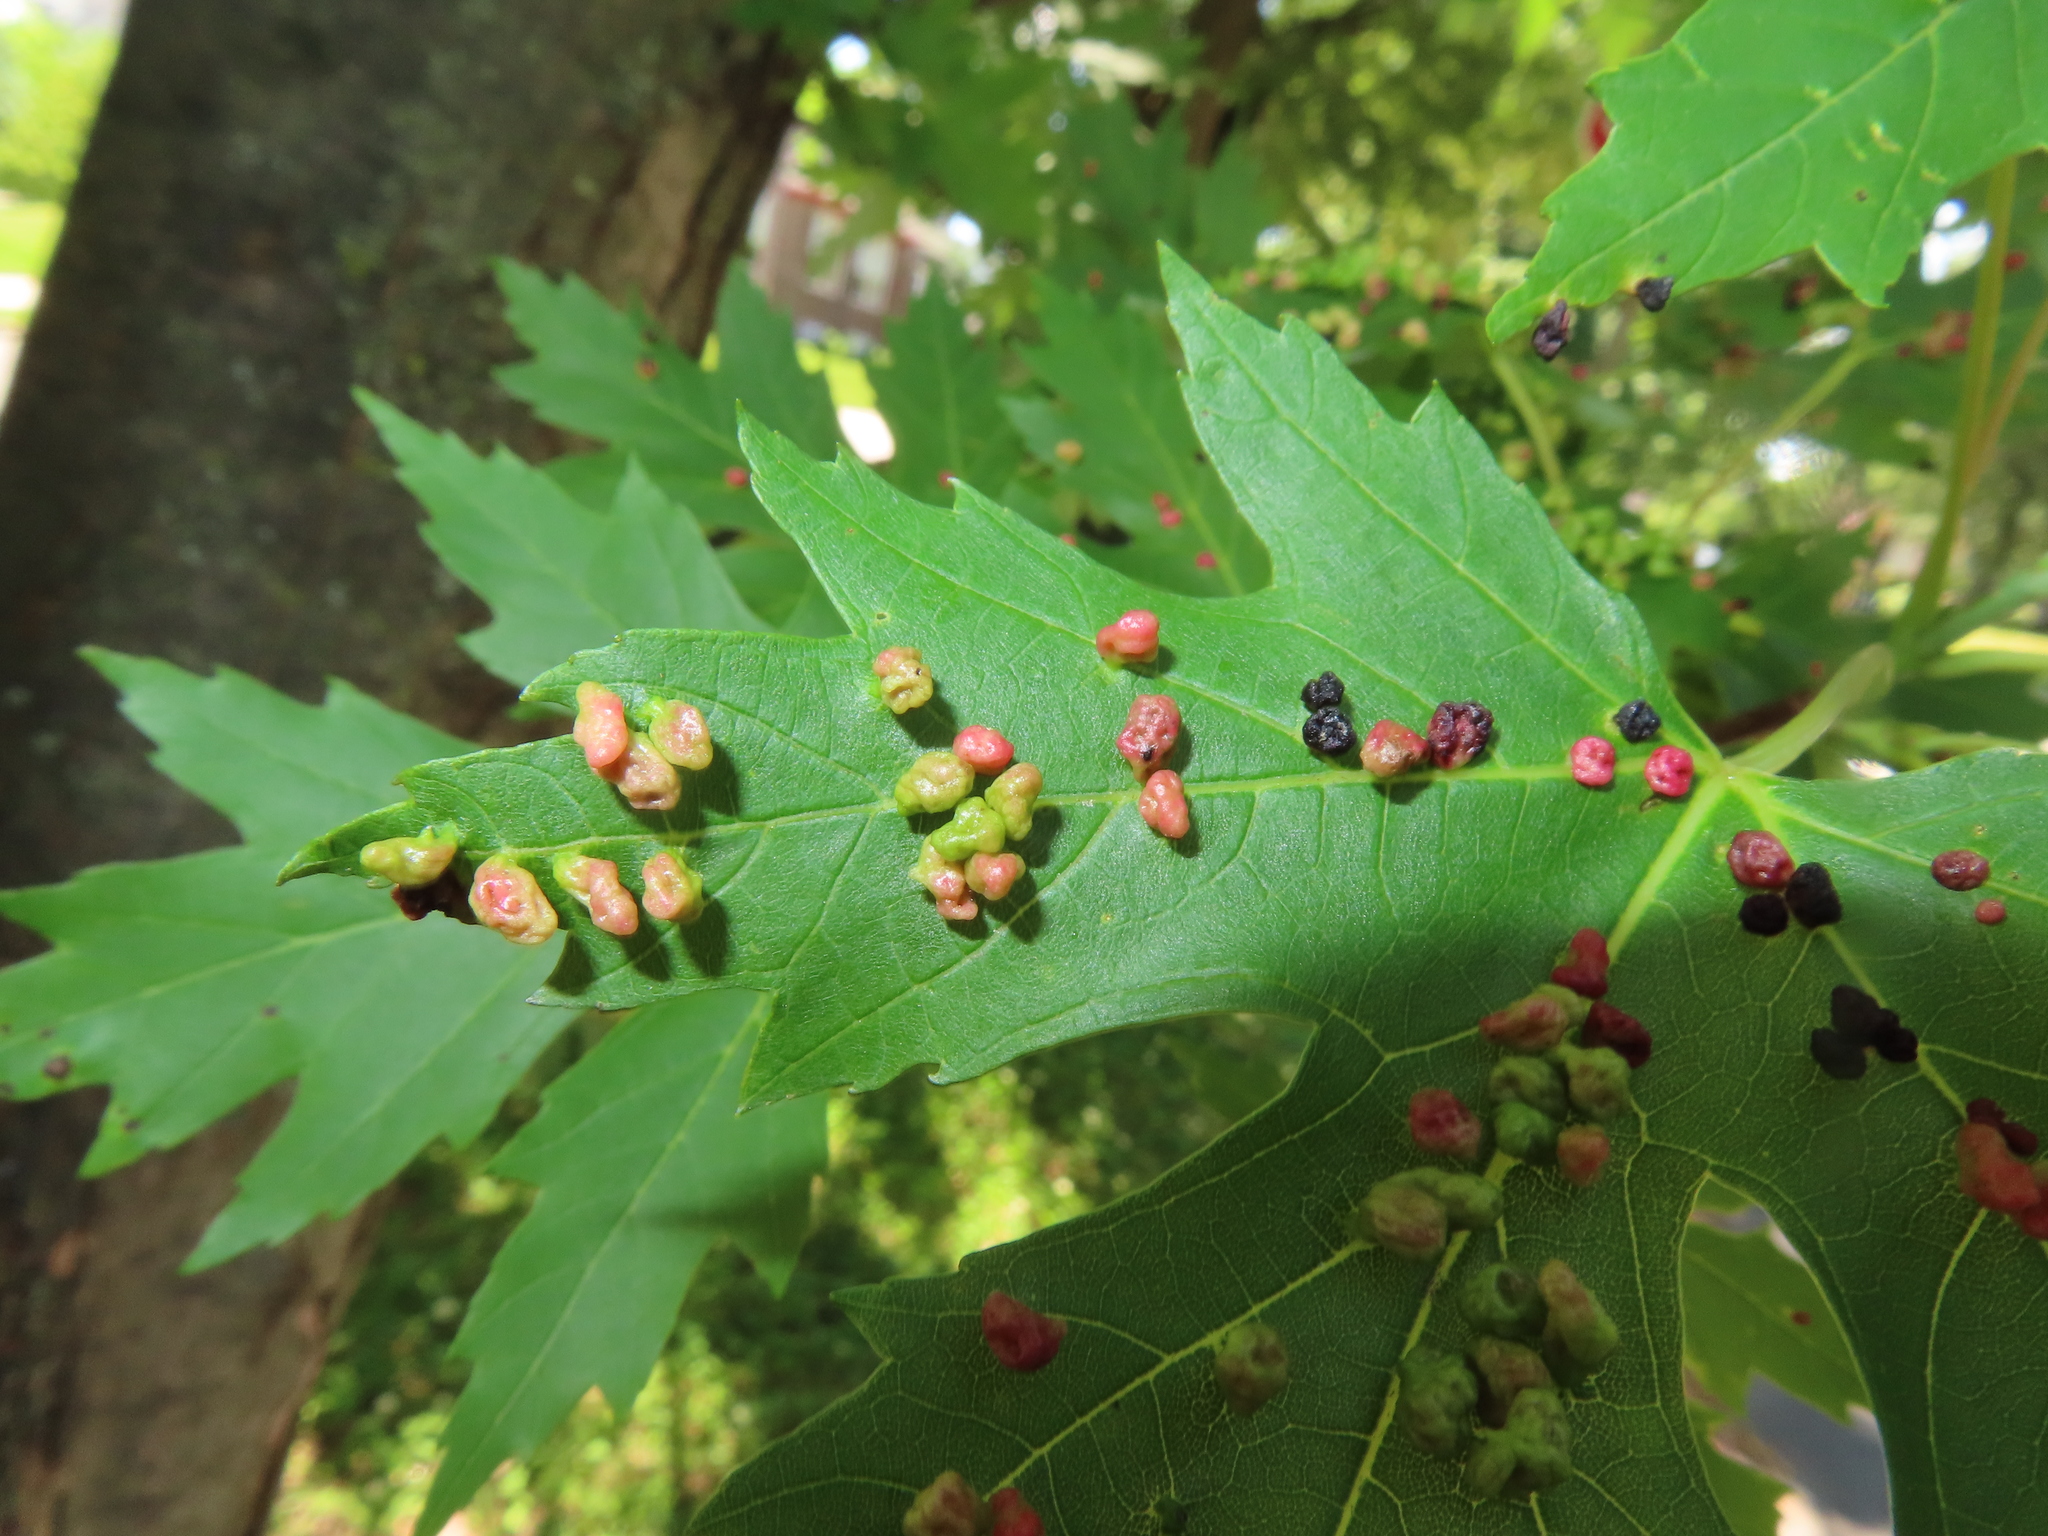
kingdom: Animalia
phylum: Arthropoda
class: Arachnida
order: Trombidiformes
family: Eriophyidae
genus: Vasates
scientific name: Vasates quadripedes
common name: Maple bladder gall mite
